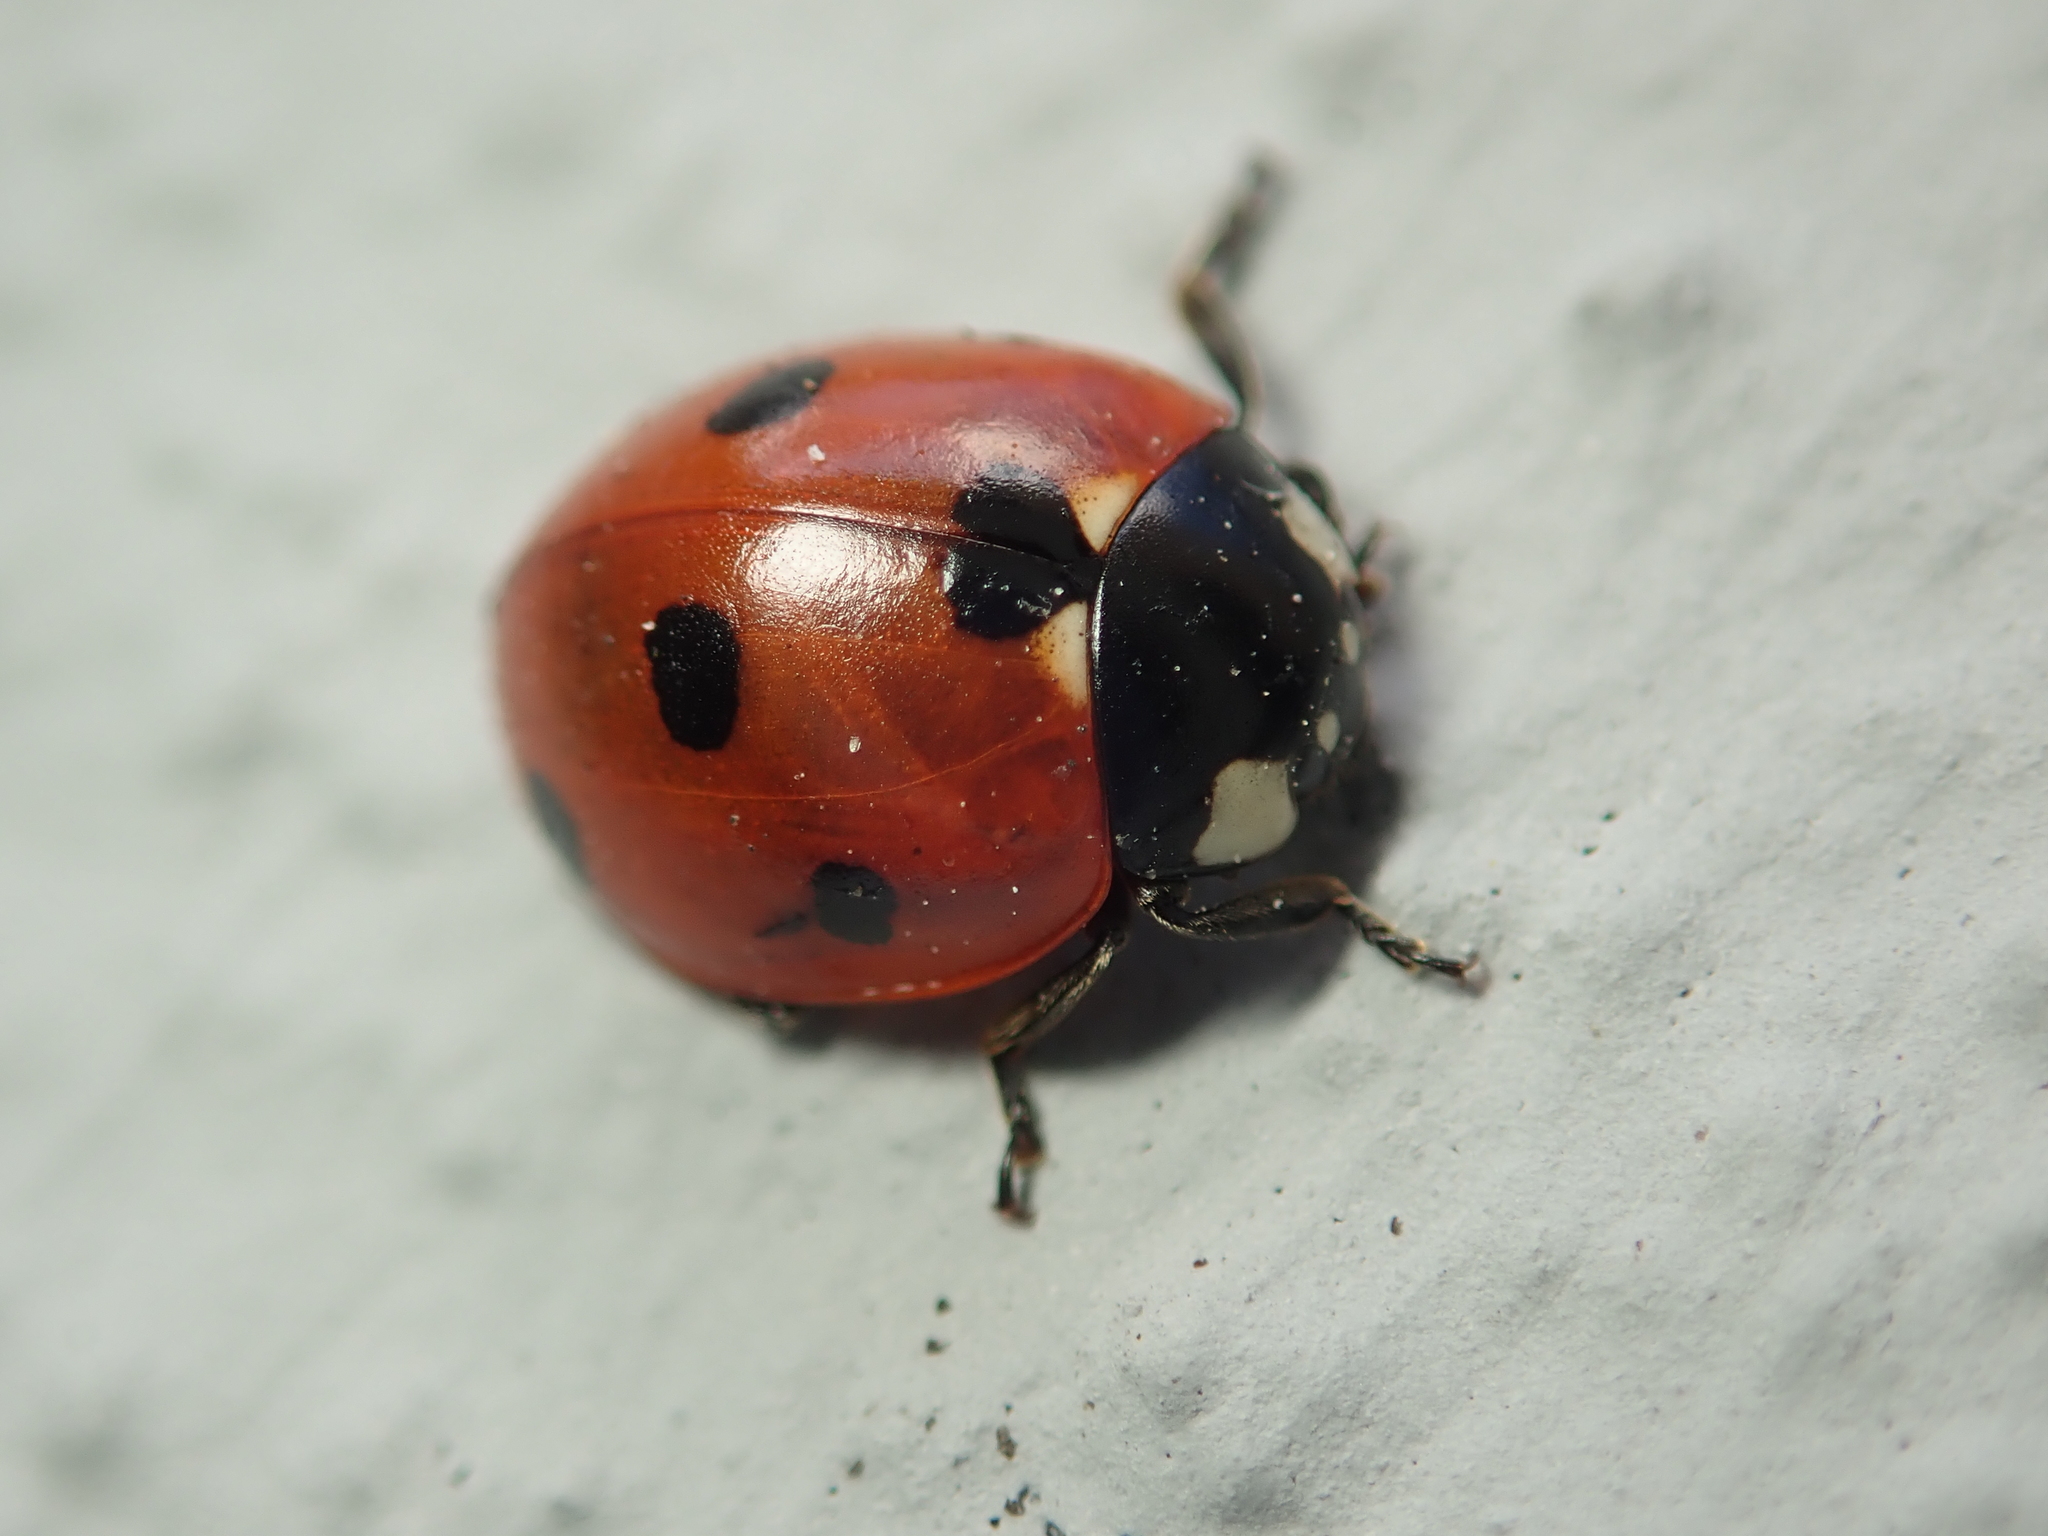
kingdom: Animalia
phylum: Arthropoda
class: Insecta
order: Coleoptera
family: Coccinellidae
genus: Coccinella
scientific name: Coccinella septempunctata
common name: Sevenspotted lady beetle
